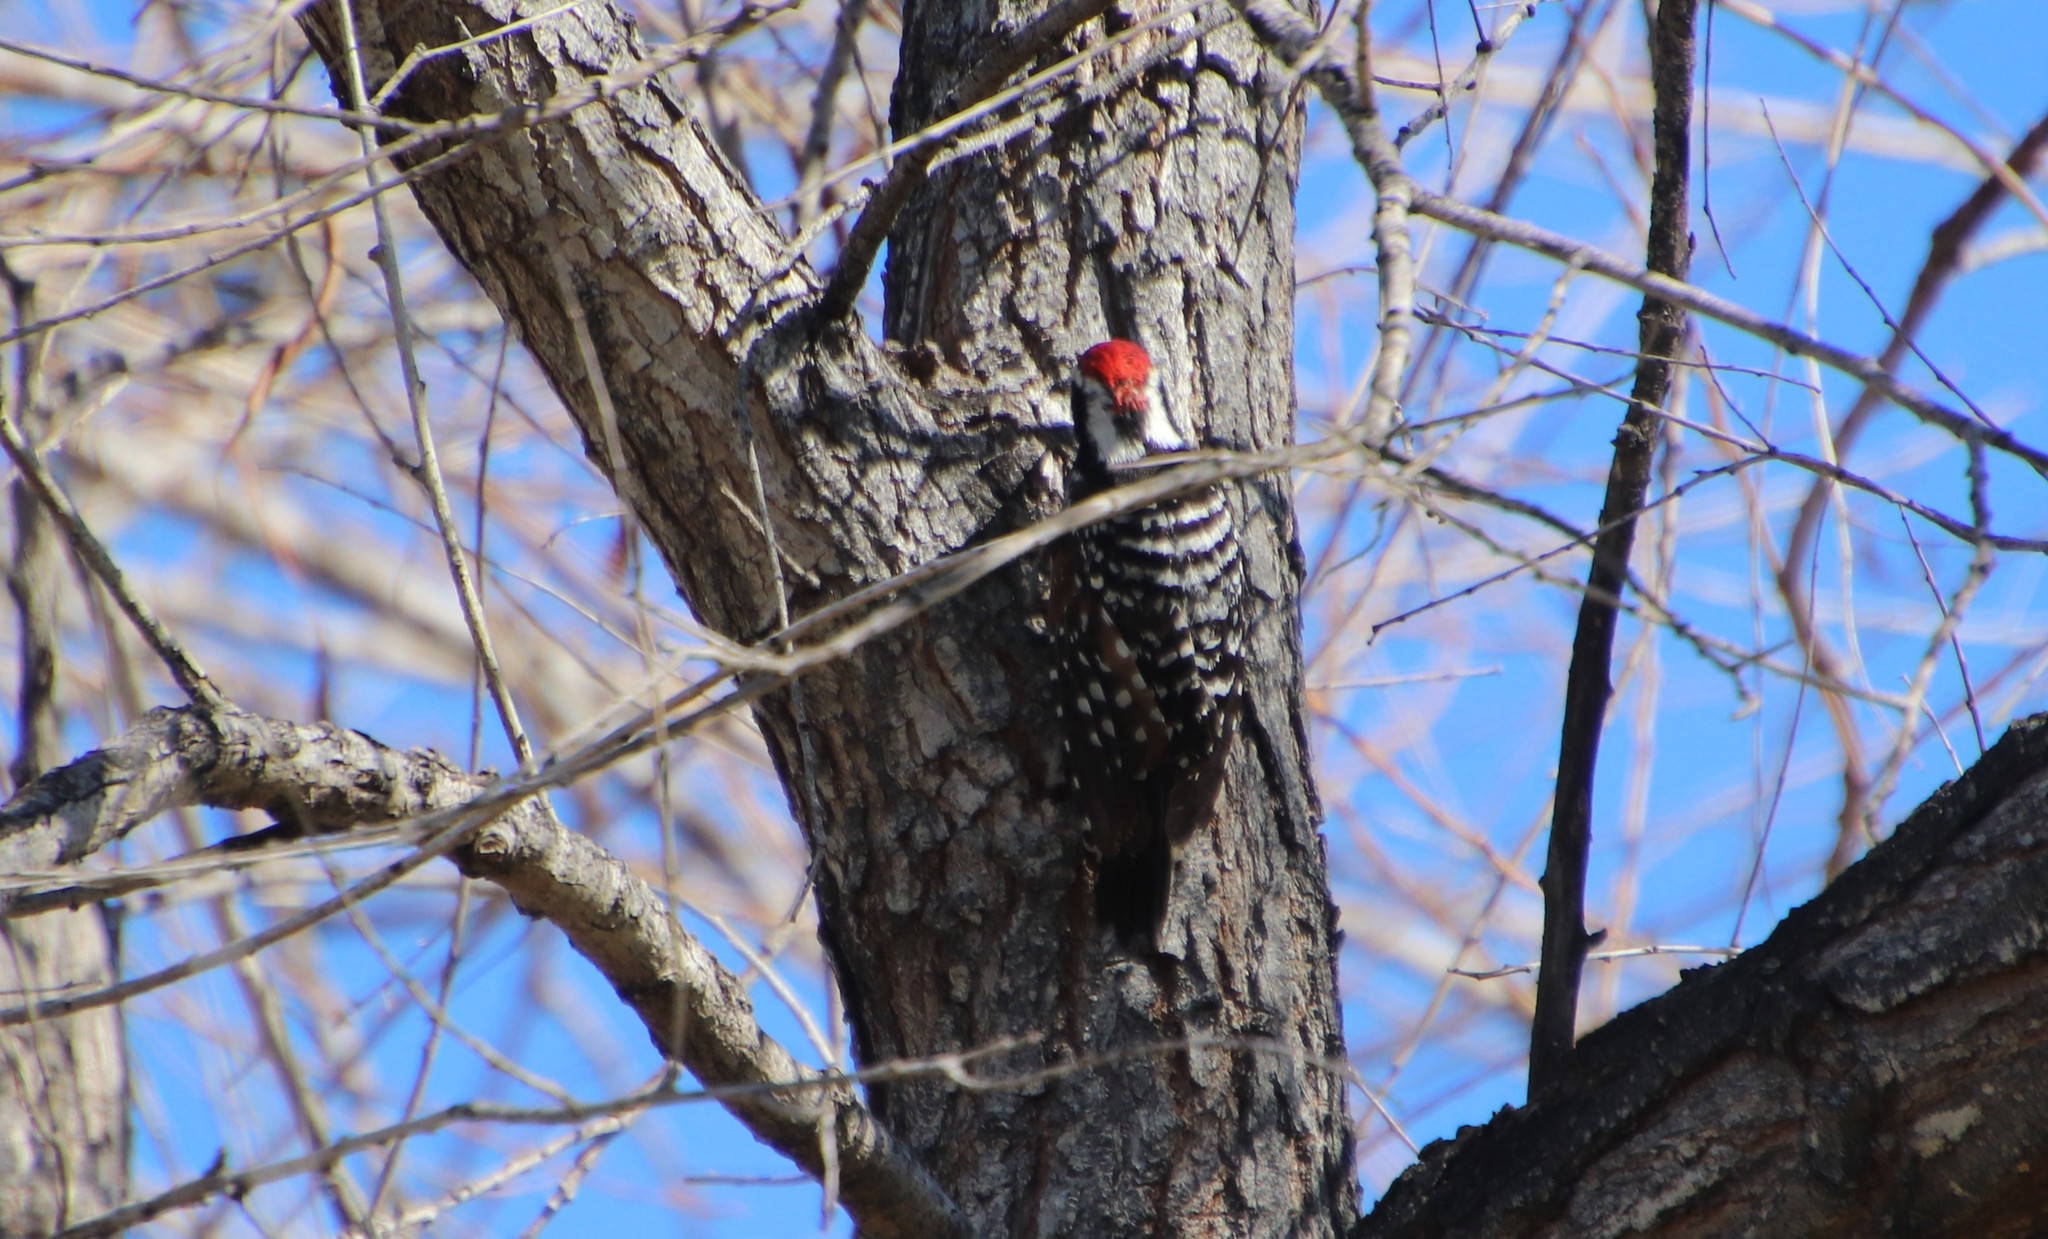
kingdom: Animalia
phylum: Chordata
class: Aves
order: Piciformes
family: Picidae
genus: Dryobates
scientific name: Dryobates nuttallii
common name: Nuttall's woodpecker
